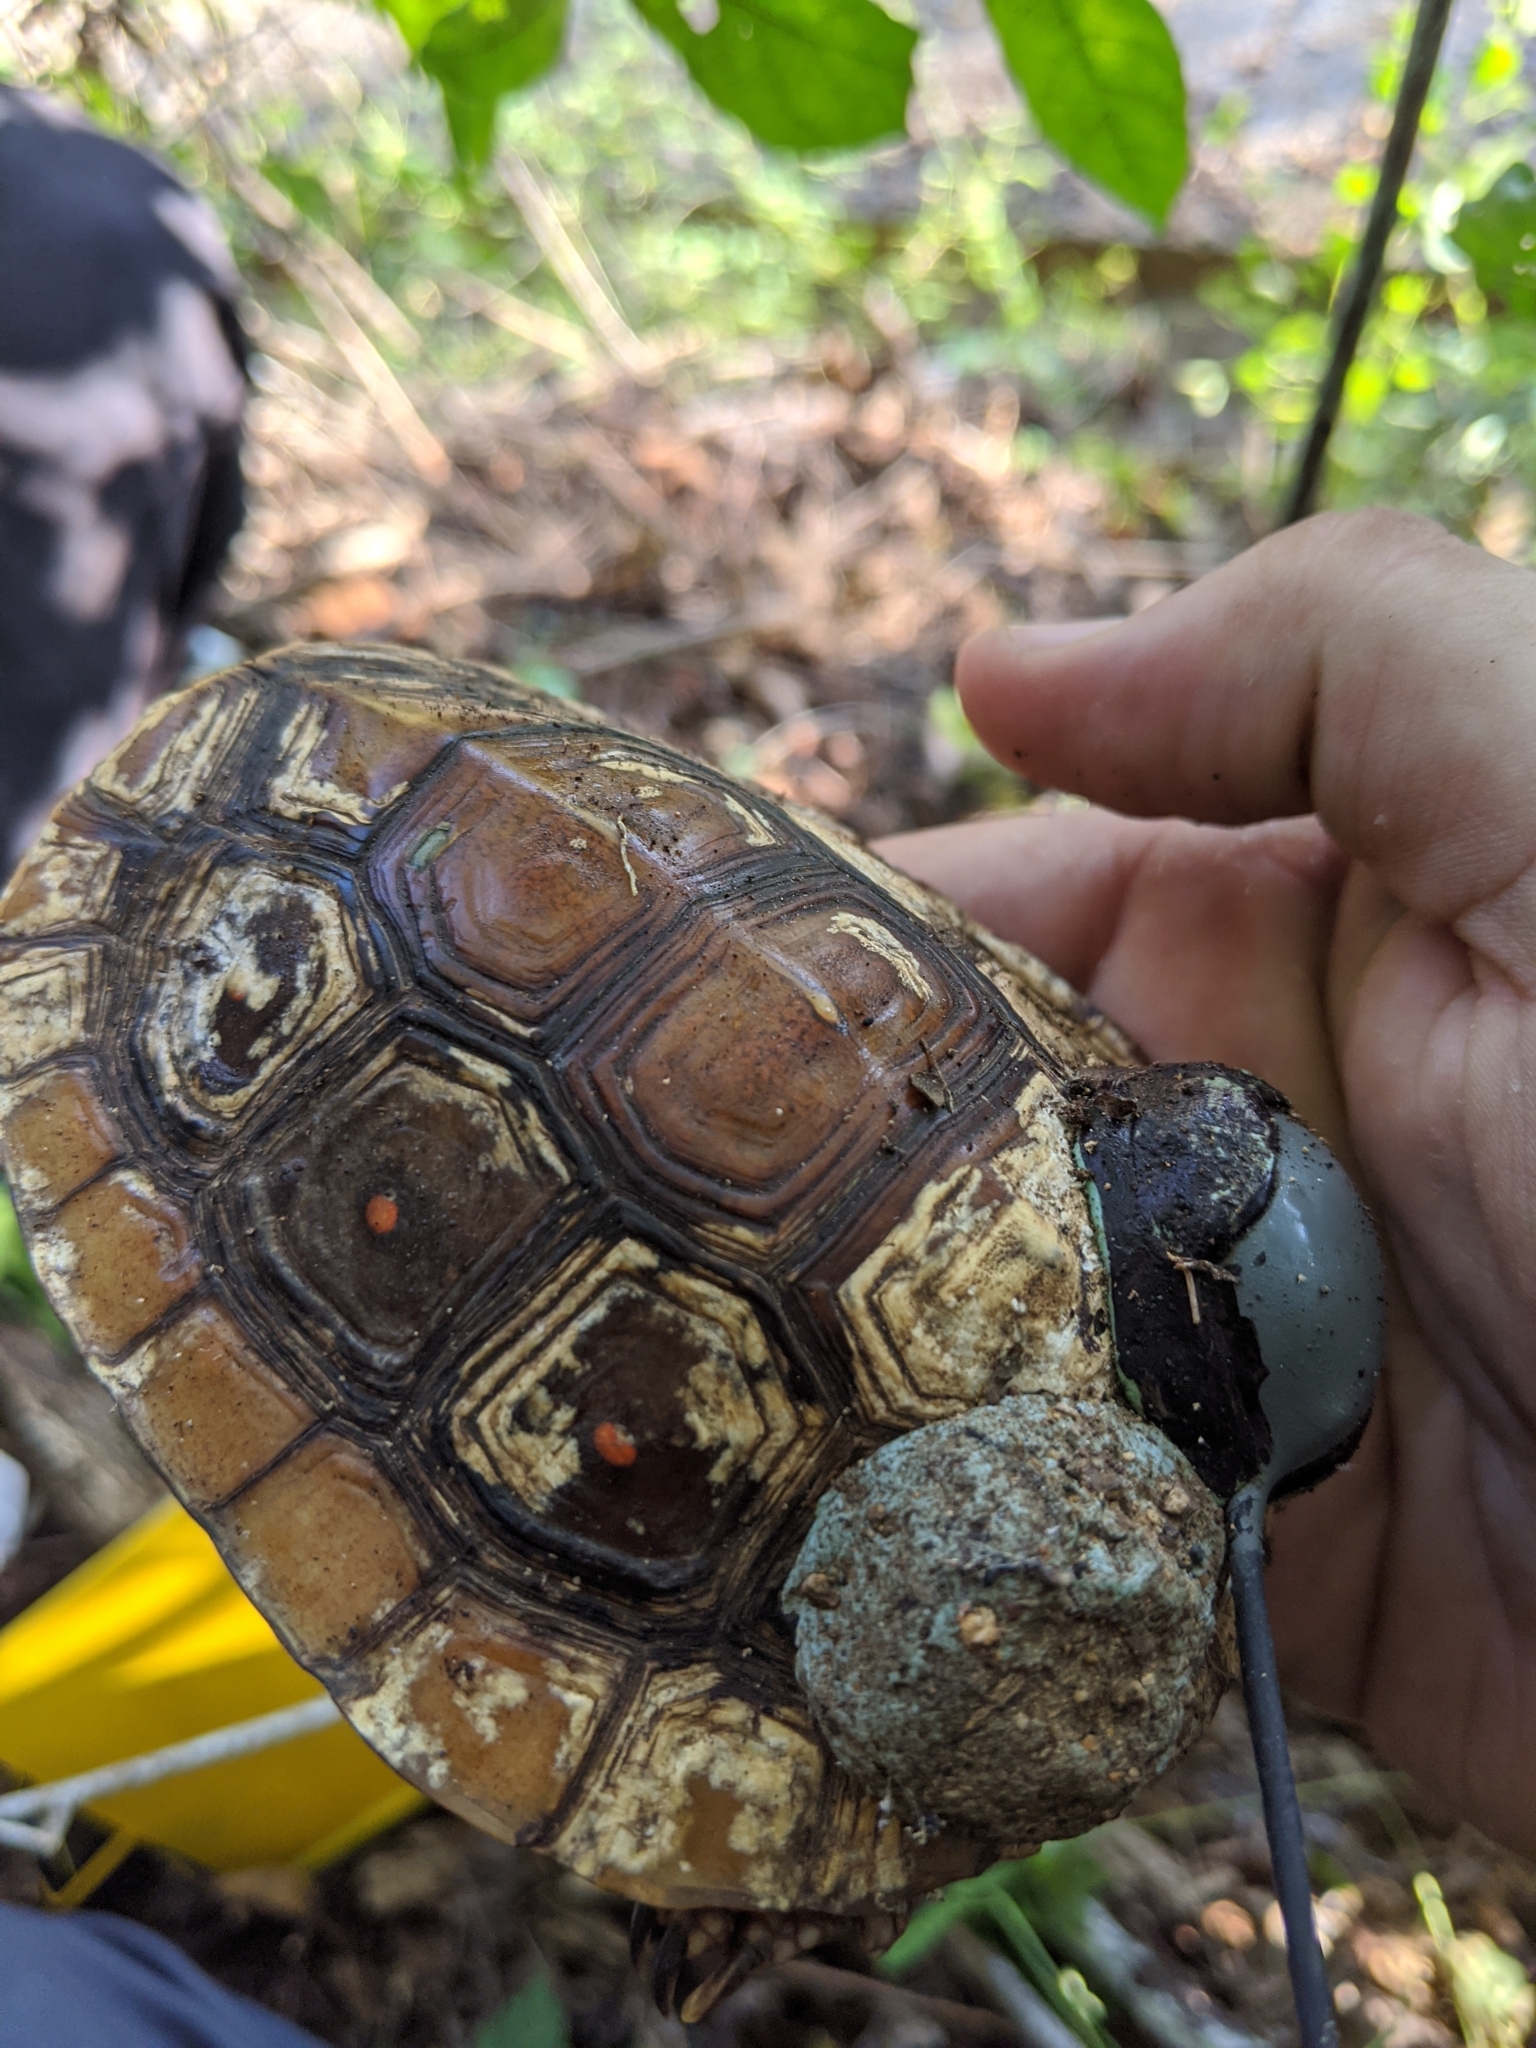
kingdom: Animalia
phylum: Chordata
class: Testudines
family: Geoemydidae
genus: Rhinoclemmys
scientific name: Rhinoclemmys rubida
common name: Mexican spotted wood turtle
